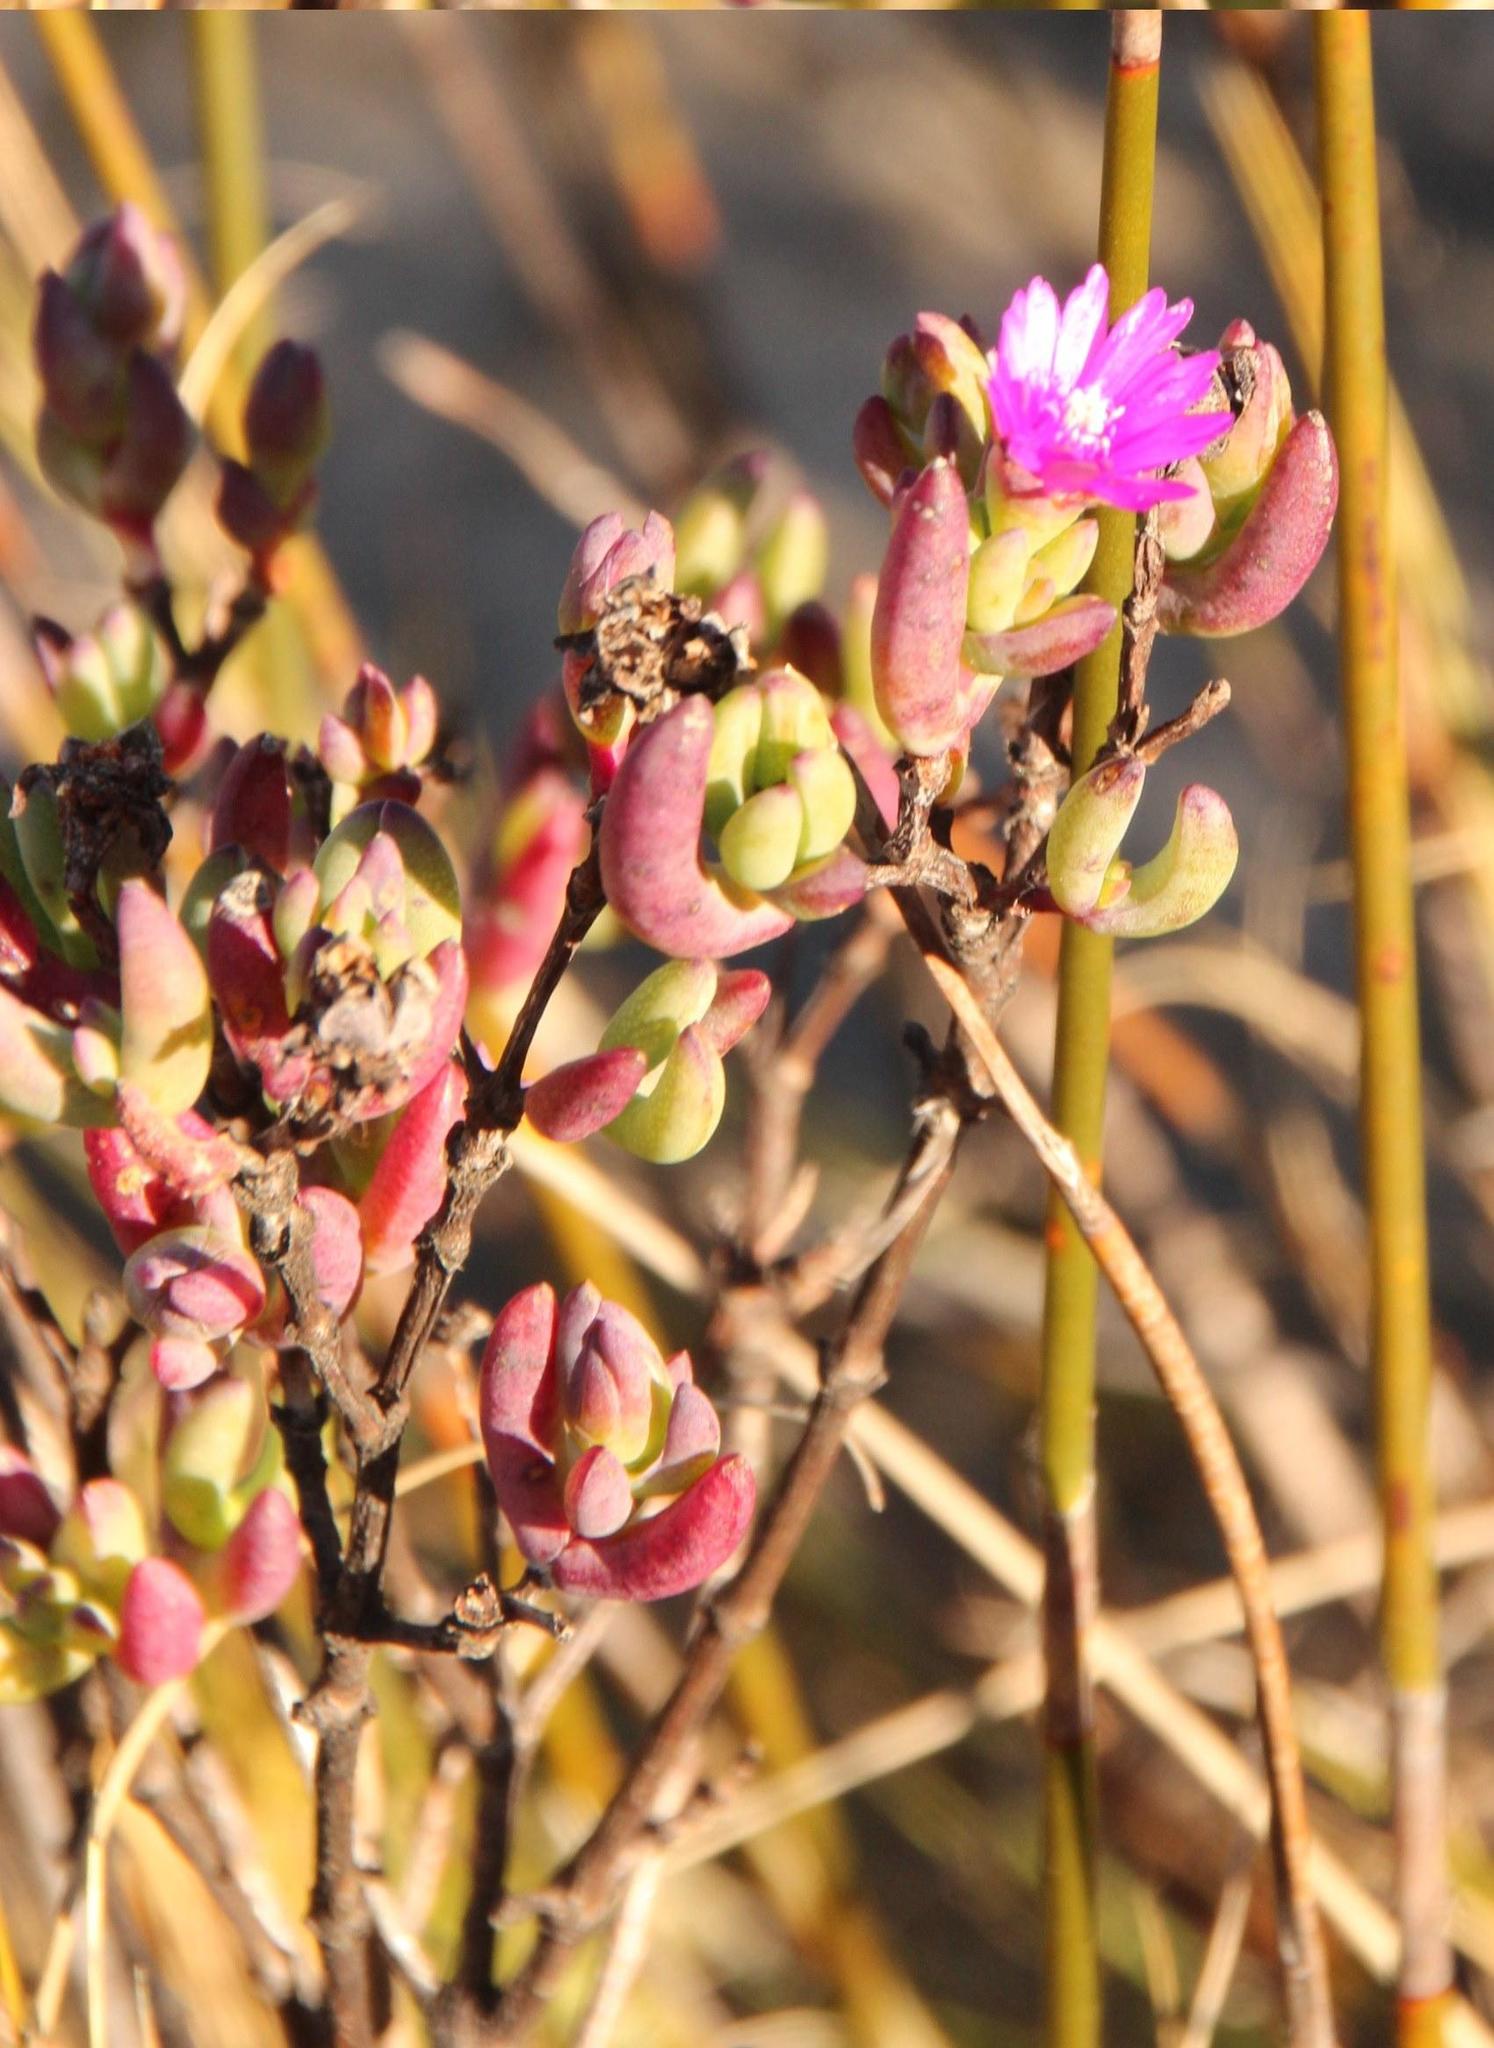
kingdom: Plantae
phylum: Tracheophyta
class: Magnoliopsida
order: Caryophyllales
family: Aizoaceae
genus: Ruschia
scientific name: Ruschia frederici
